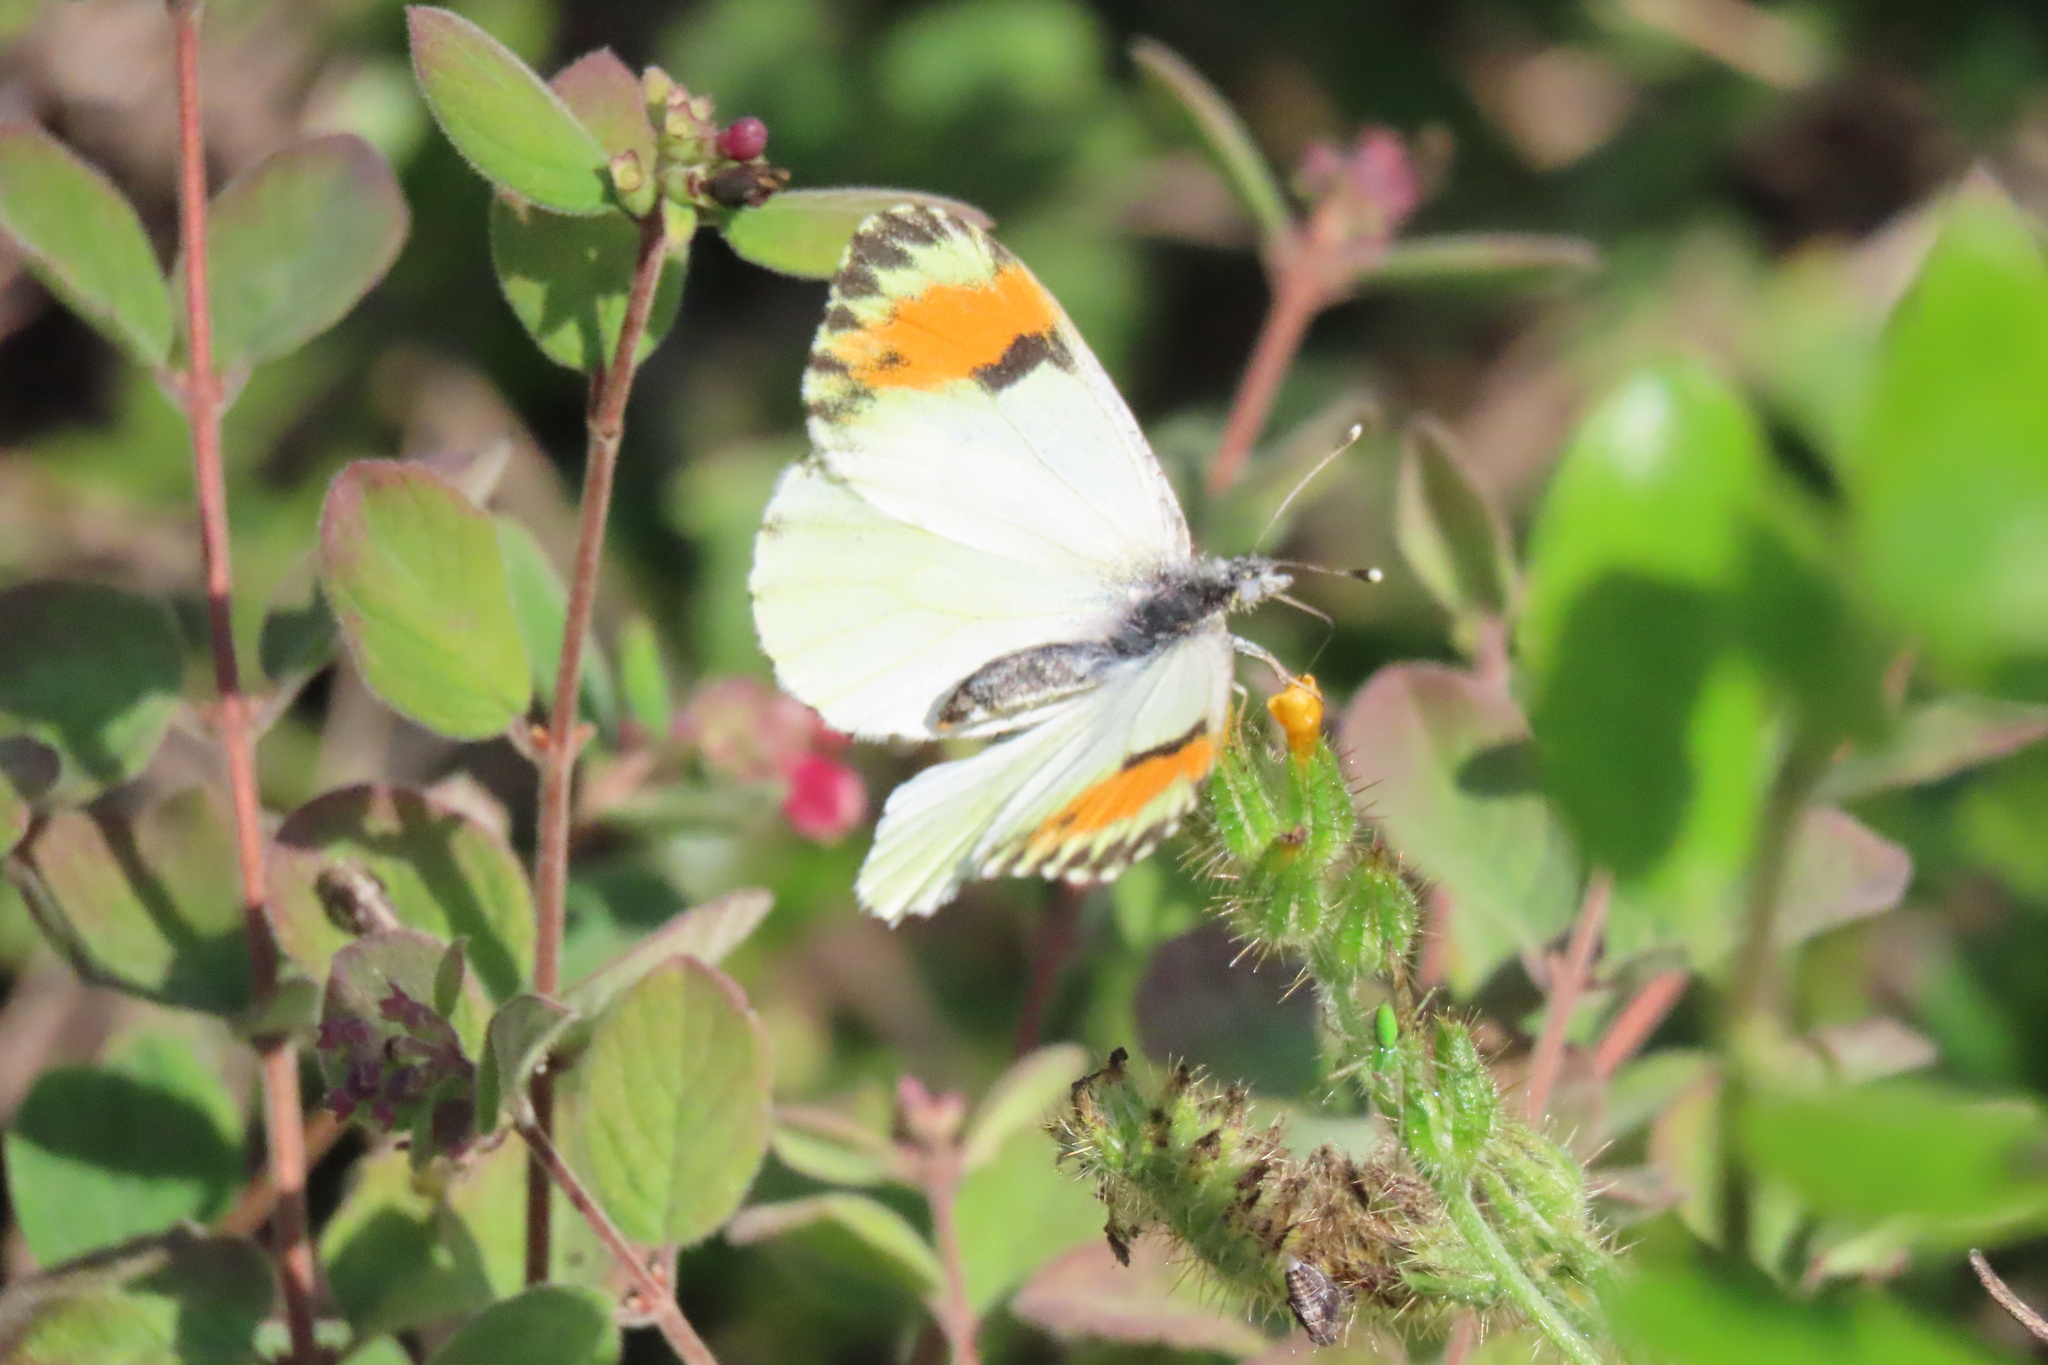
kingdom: Animalia
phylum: Arthropoda
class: Insecta
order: Lepidoptera
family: Pieridae
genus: Anthocharis
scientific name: Anthocharis sara
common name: Sara's orangetip
